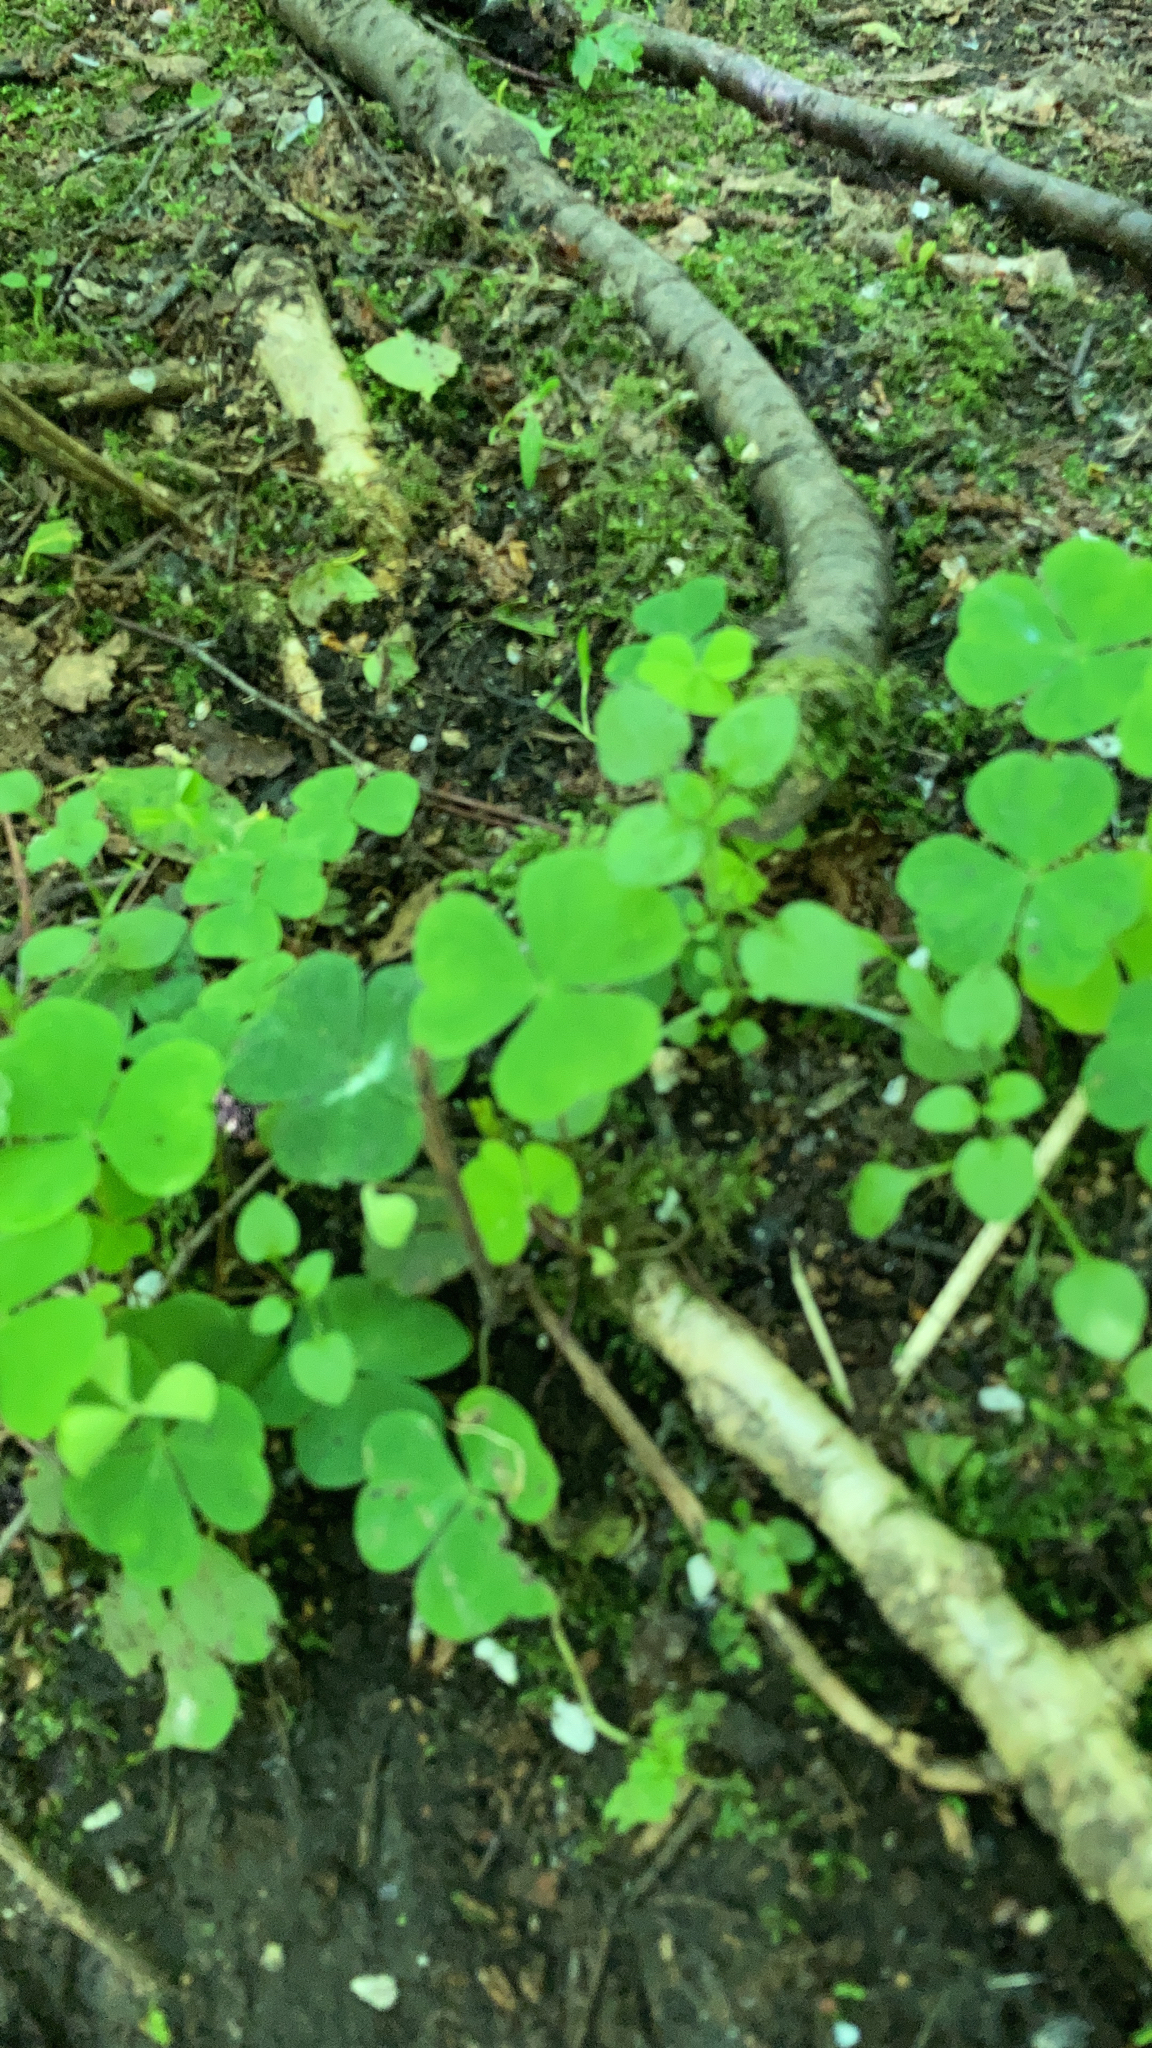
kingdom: Plantae
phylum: Tracheophyta
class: Magnoliopsida
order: Oxalidales
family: Oxalidaceae
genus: Oxalis
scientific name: Oxalis acetosella
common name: Wood-sorrel
